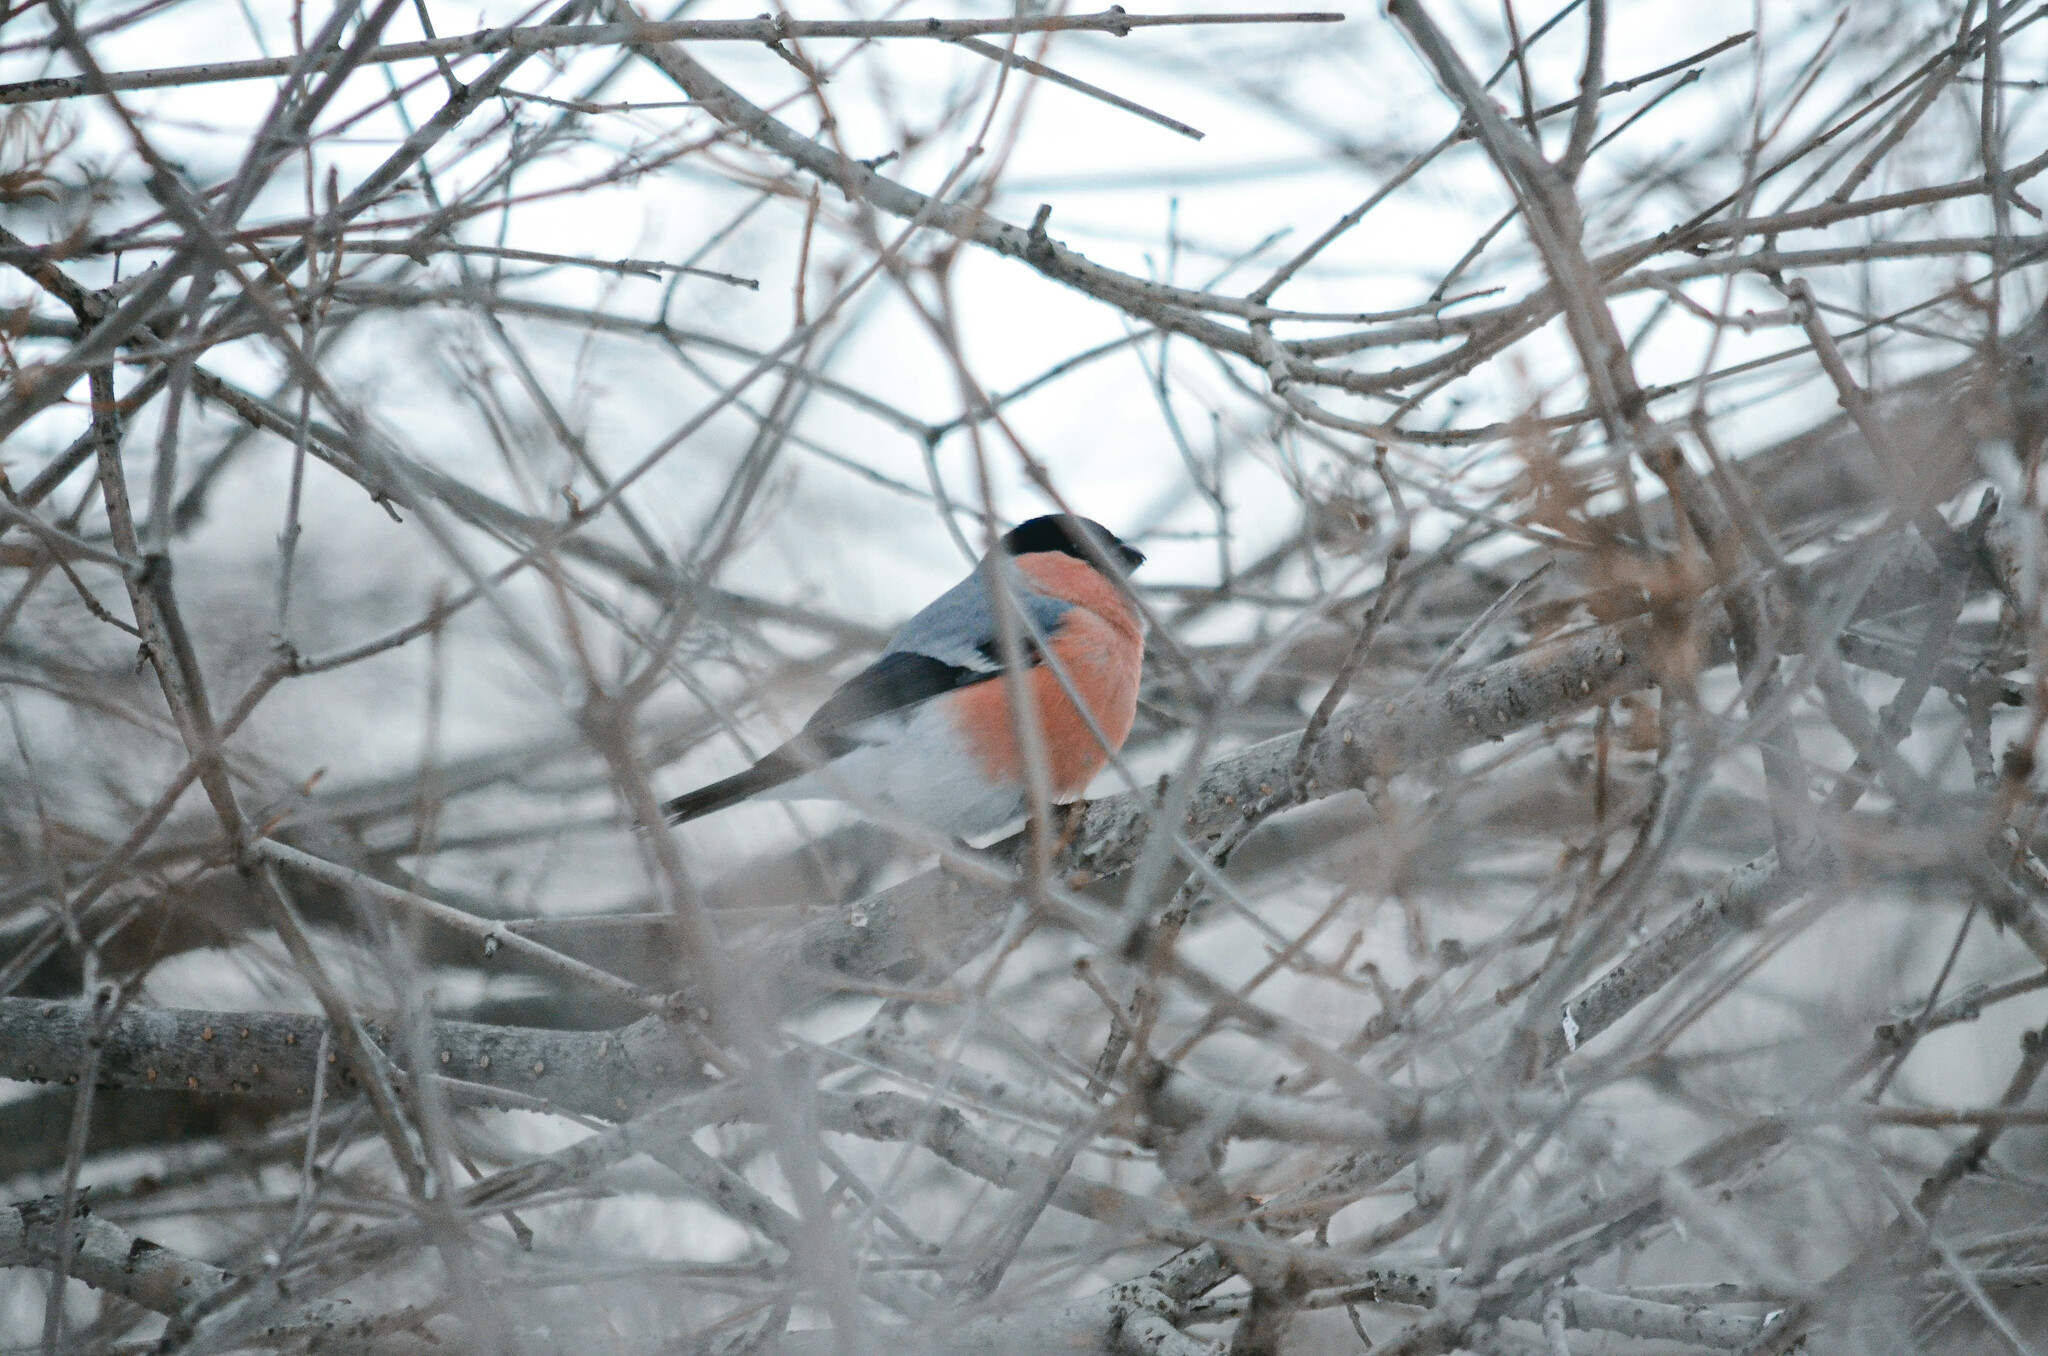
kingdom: Animalia
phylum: Chordata
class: Aves
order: Passeriformes
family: Fringillidae
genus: Pyrrhula
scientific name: Pyrrhula pyrrhula
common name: Eurasian bullfinch
